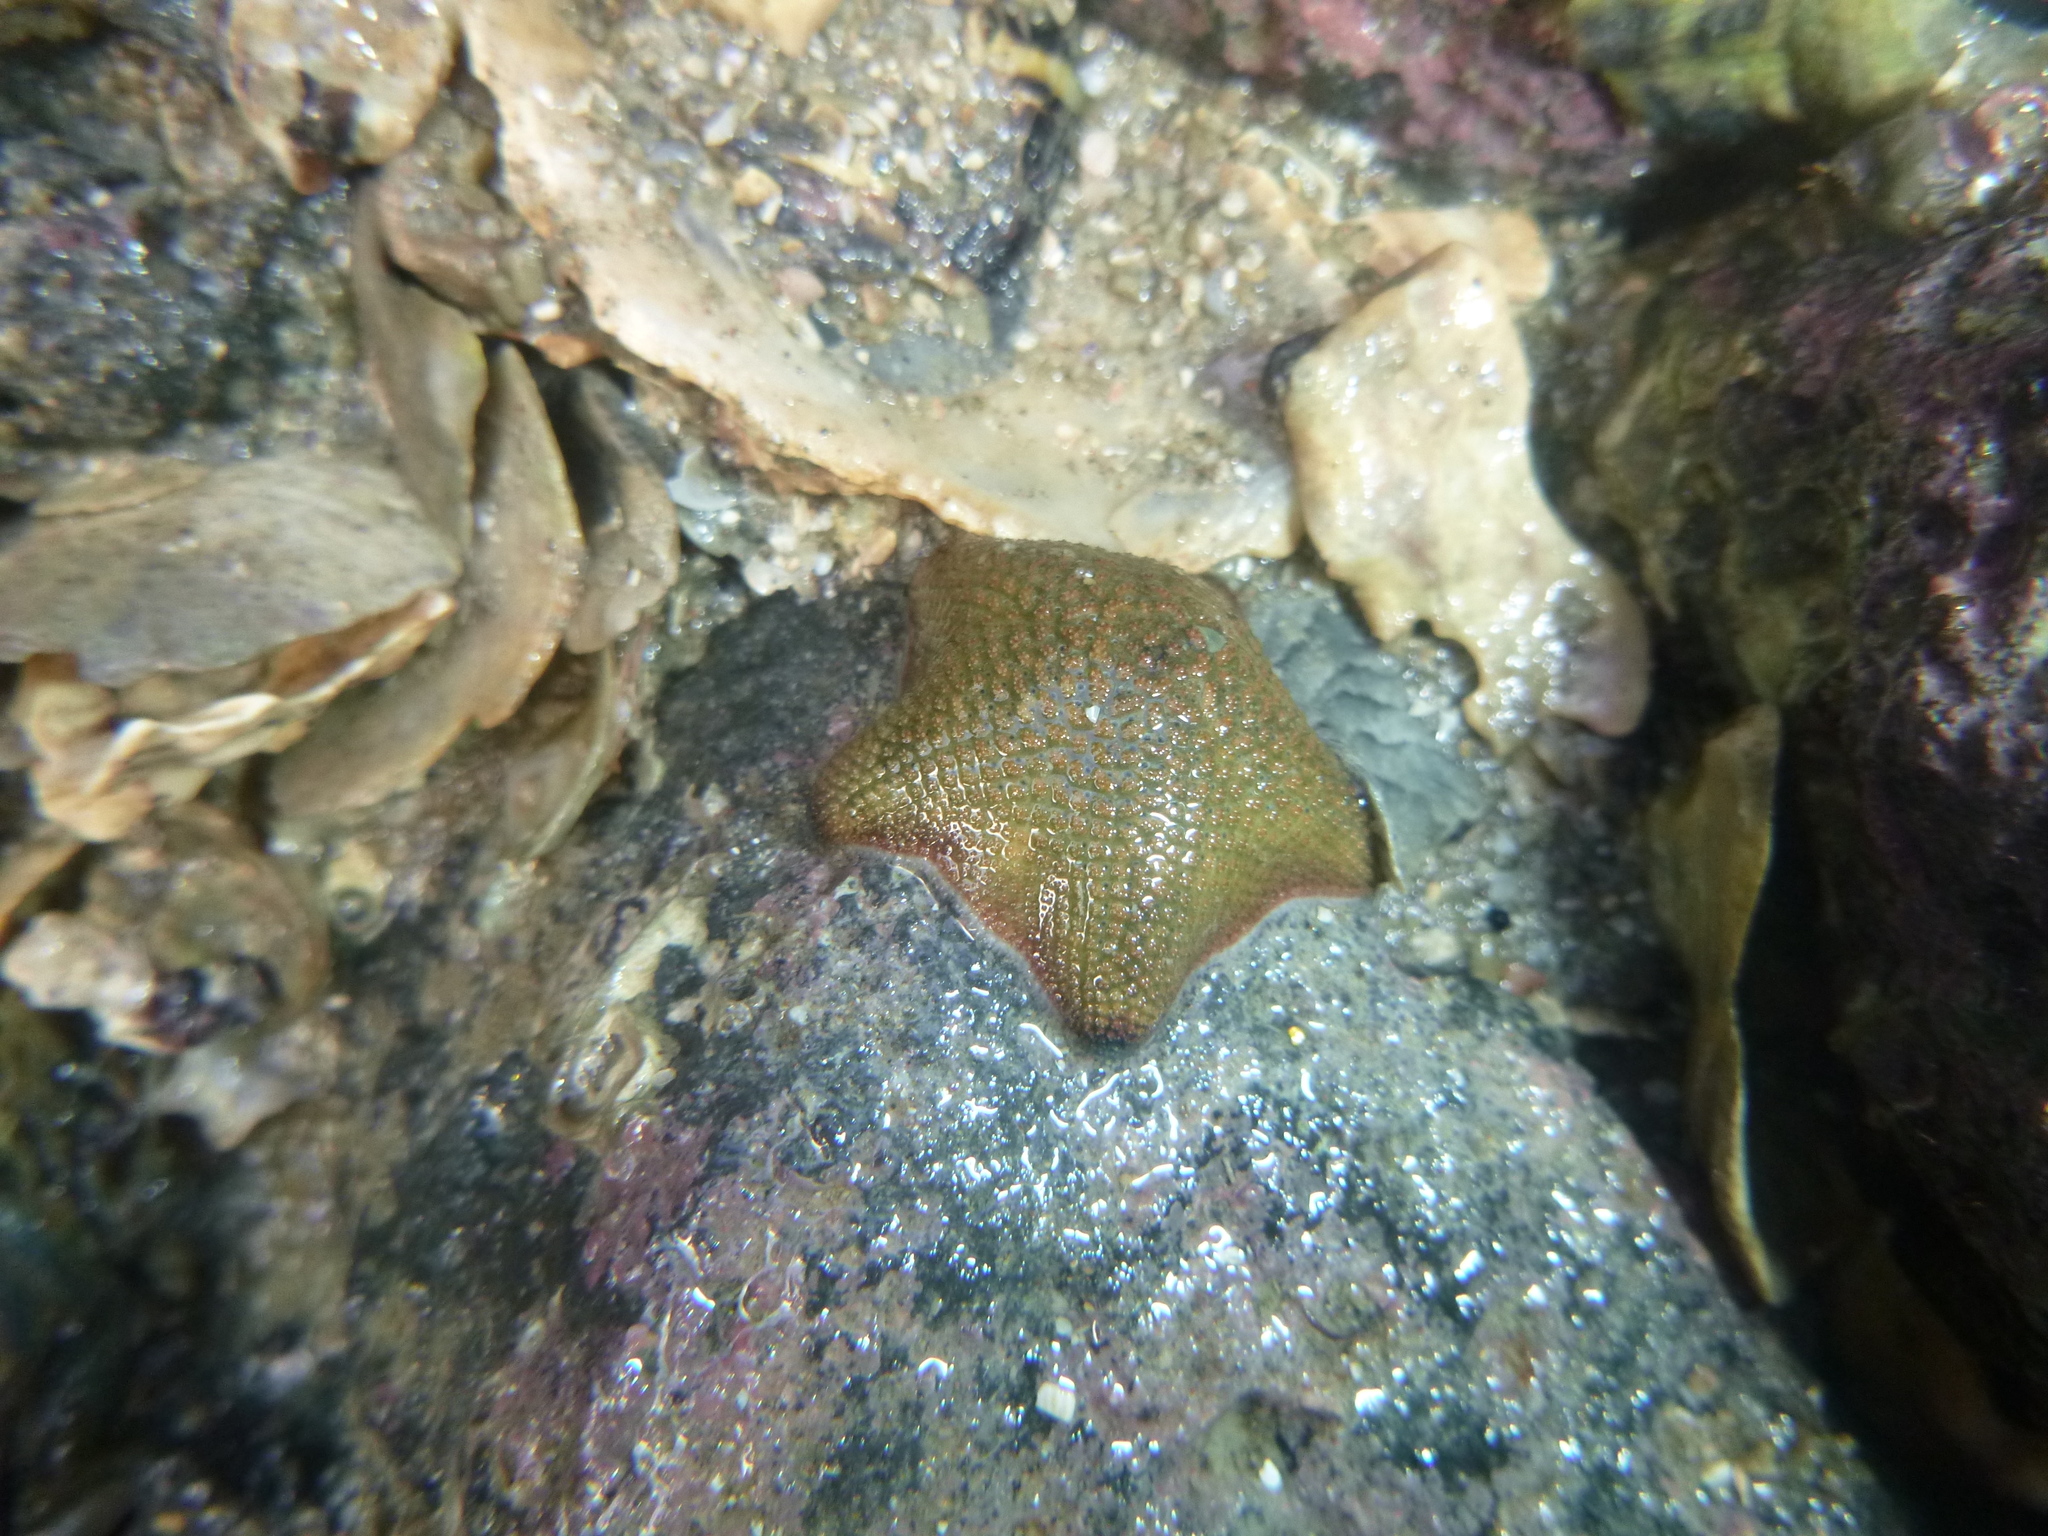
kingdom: Animalia
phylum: Echinodermata
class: Asteroidea
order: Valvatida
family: Asterinidae
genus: Patiriella
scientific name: Patiriella regularis
